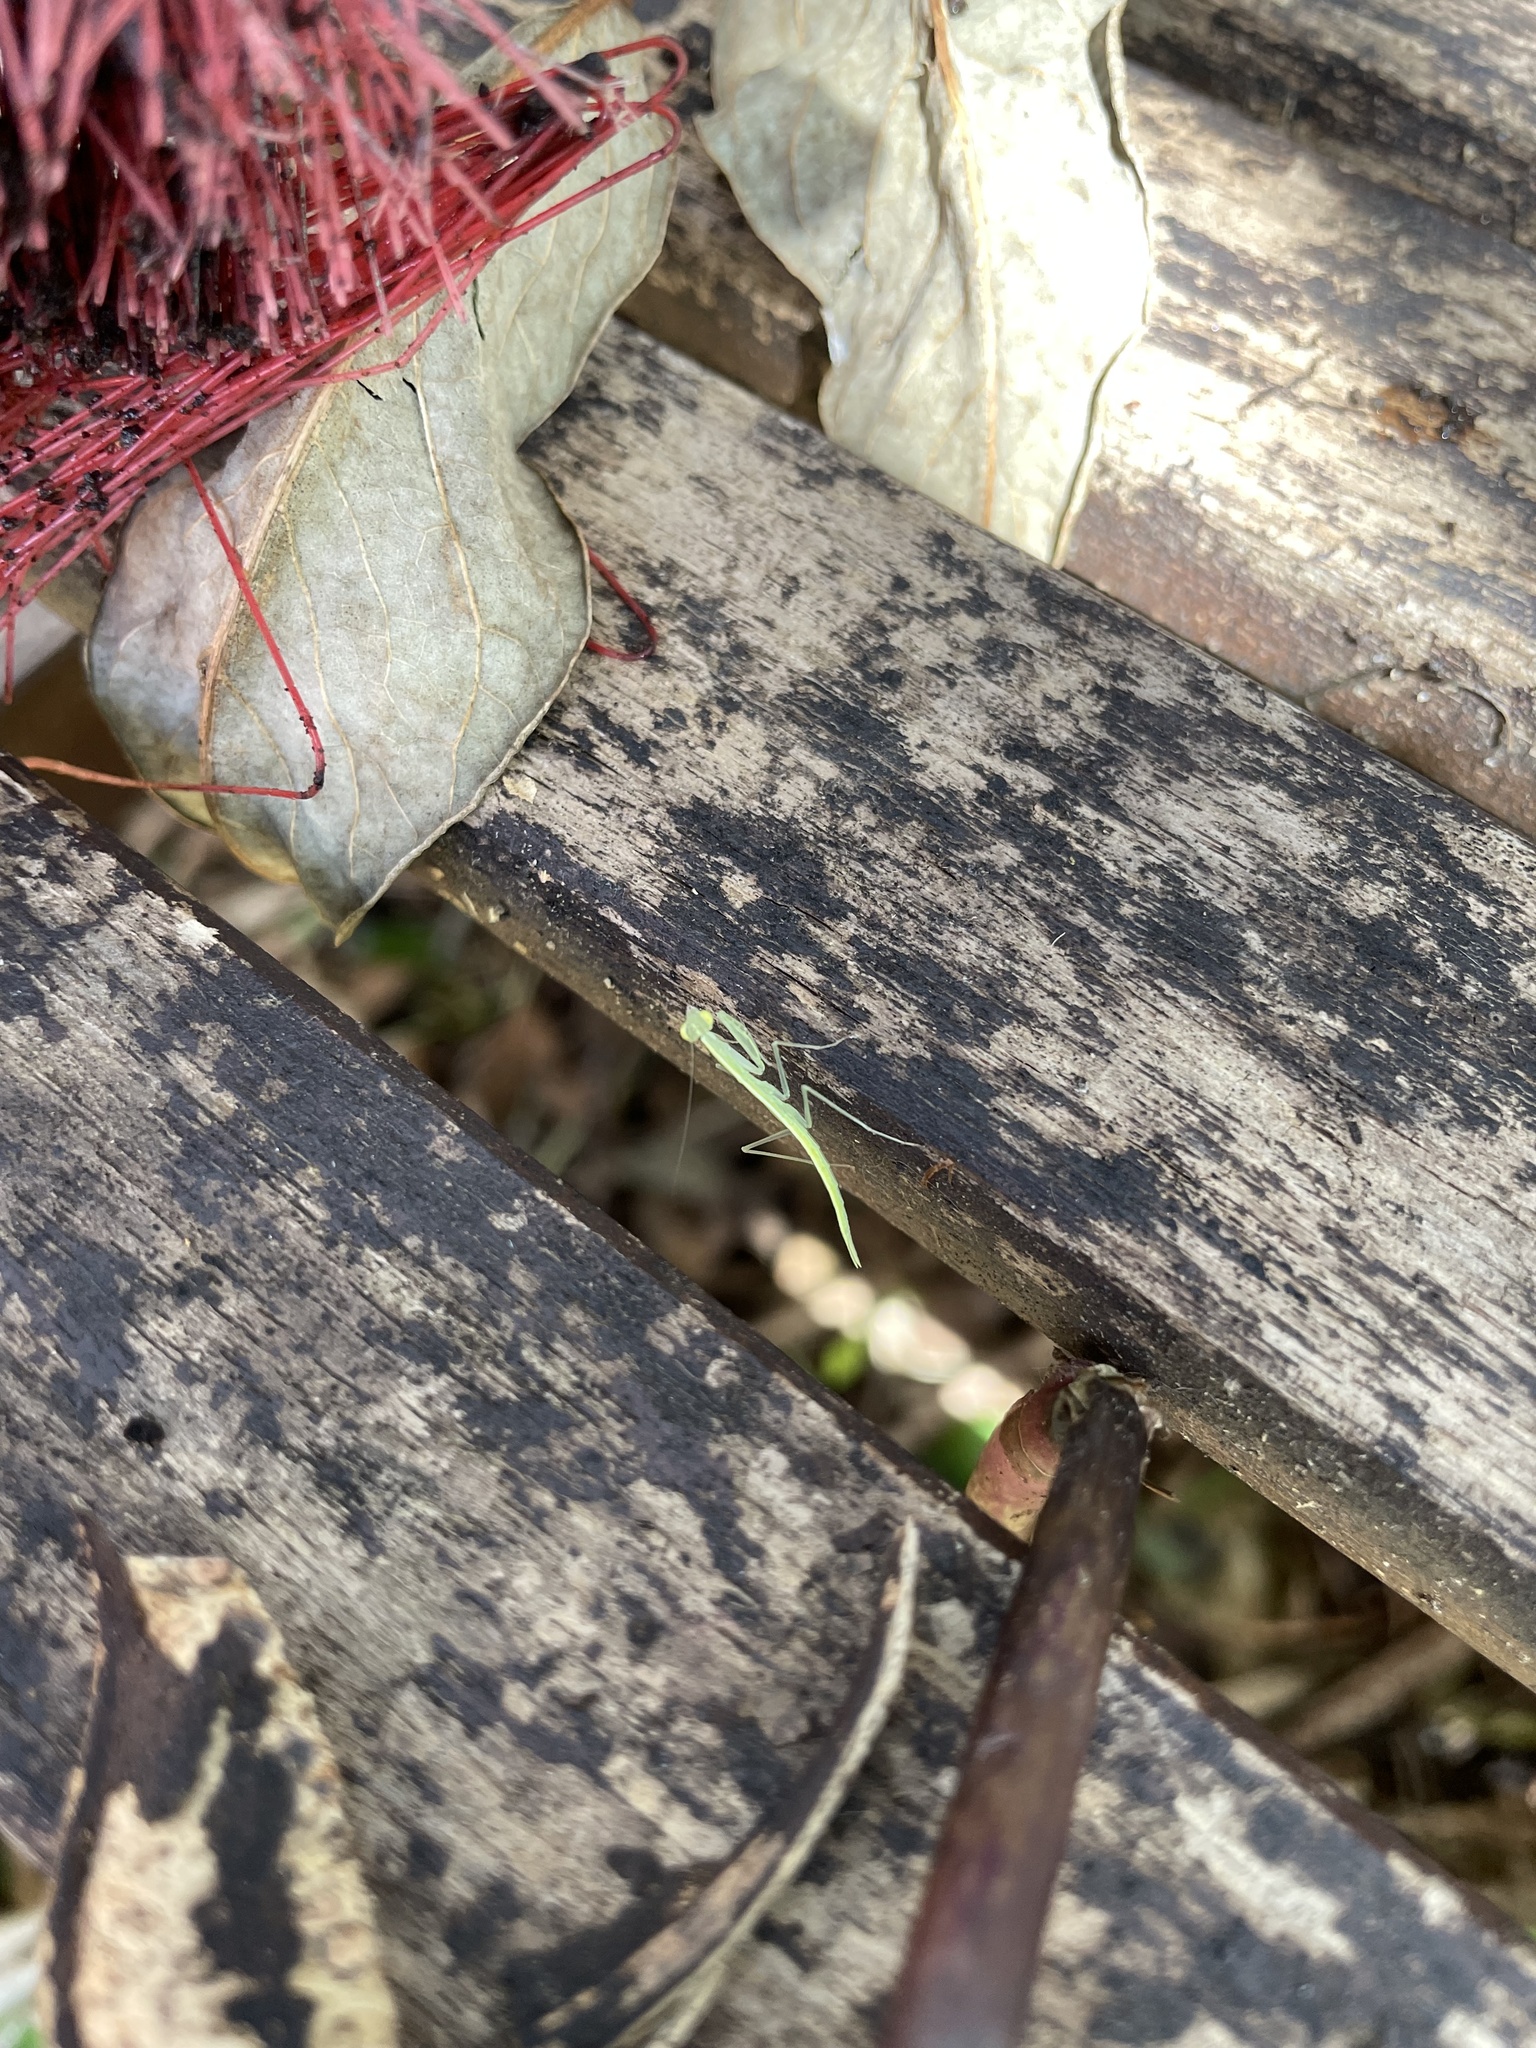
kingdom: Animalia
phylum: Arthropoda
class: Insecta
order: Mantodea
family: Nanomantidae
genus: Kongobatha
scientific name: Kongobatha diademata
